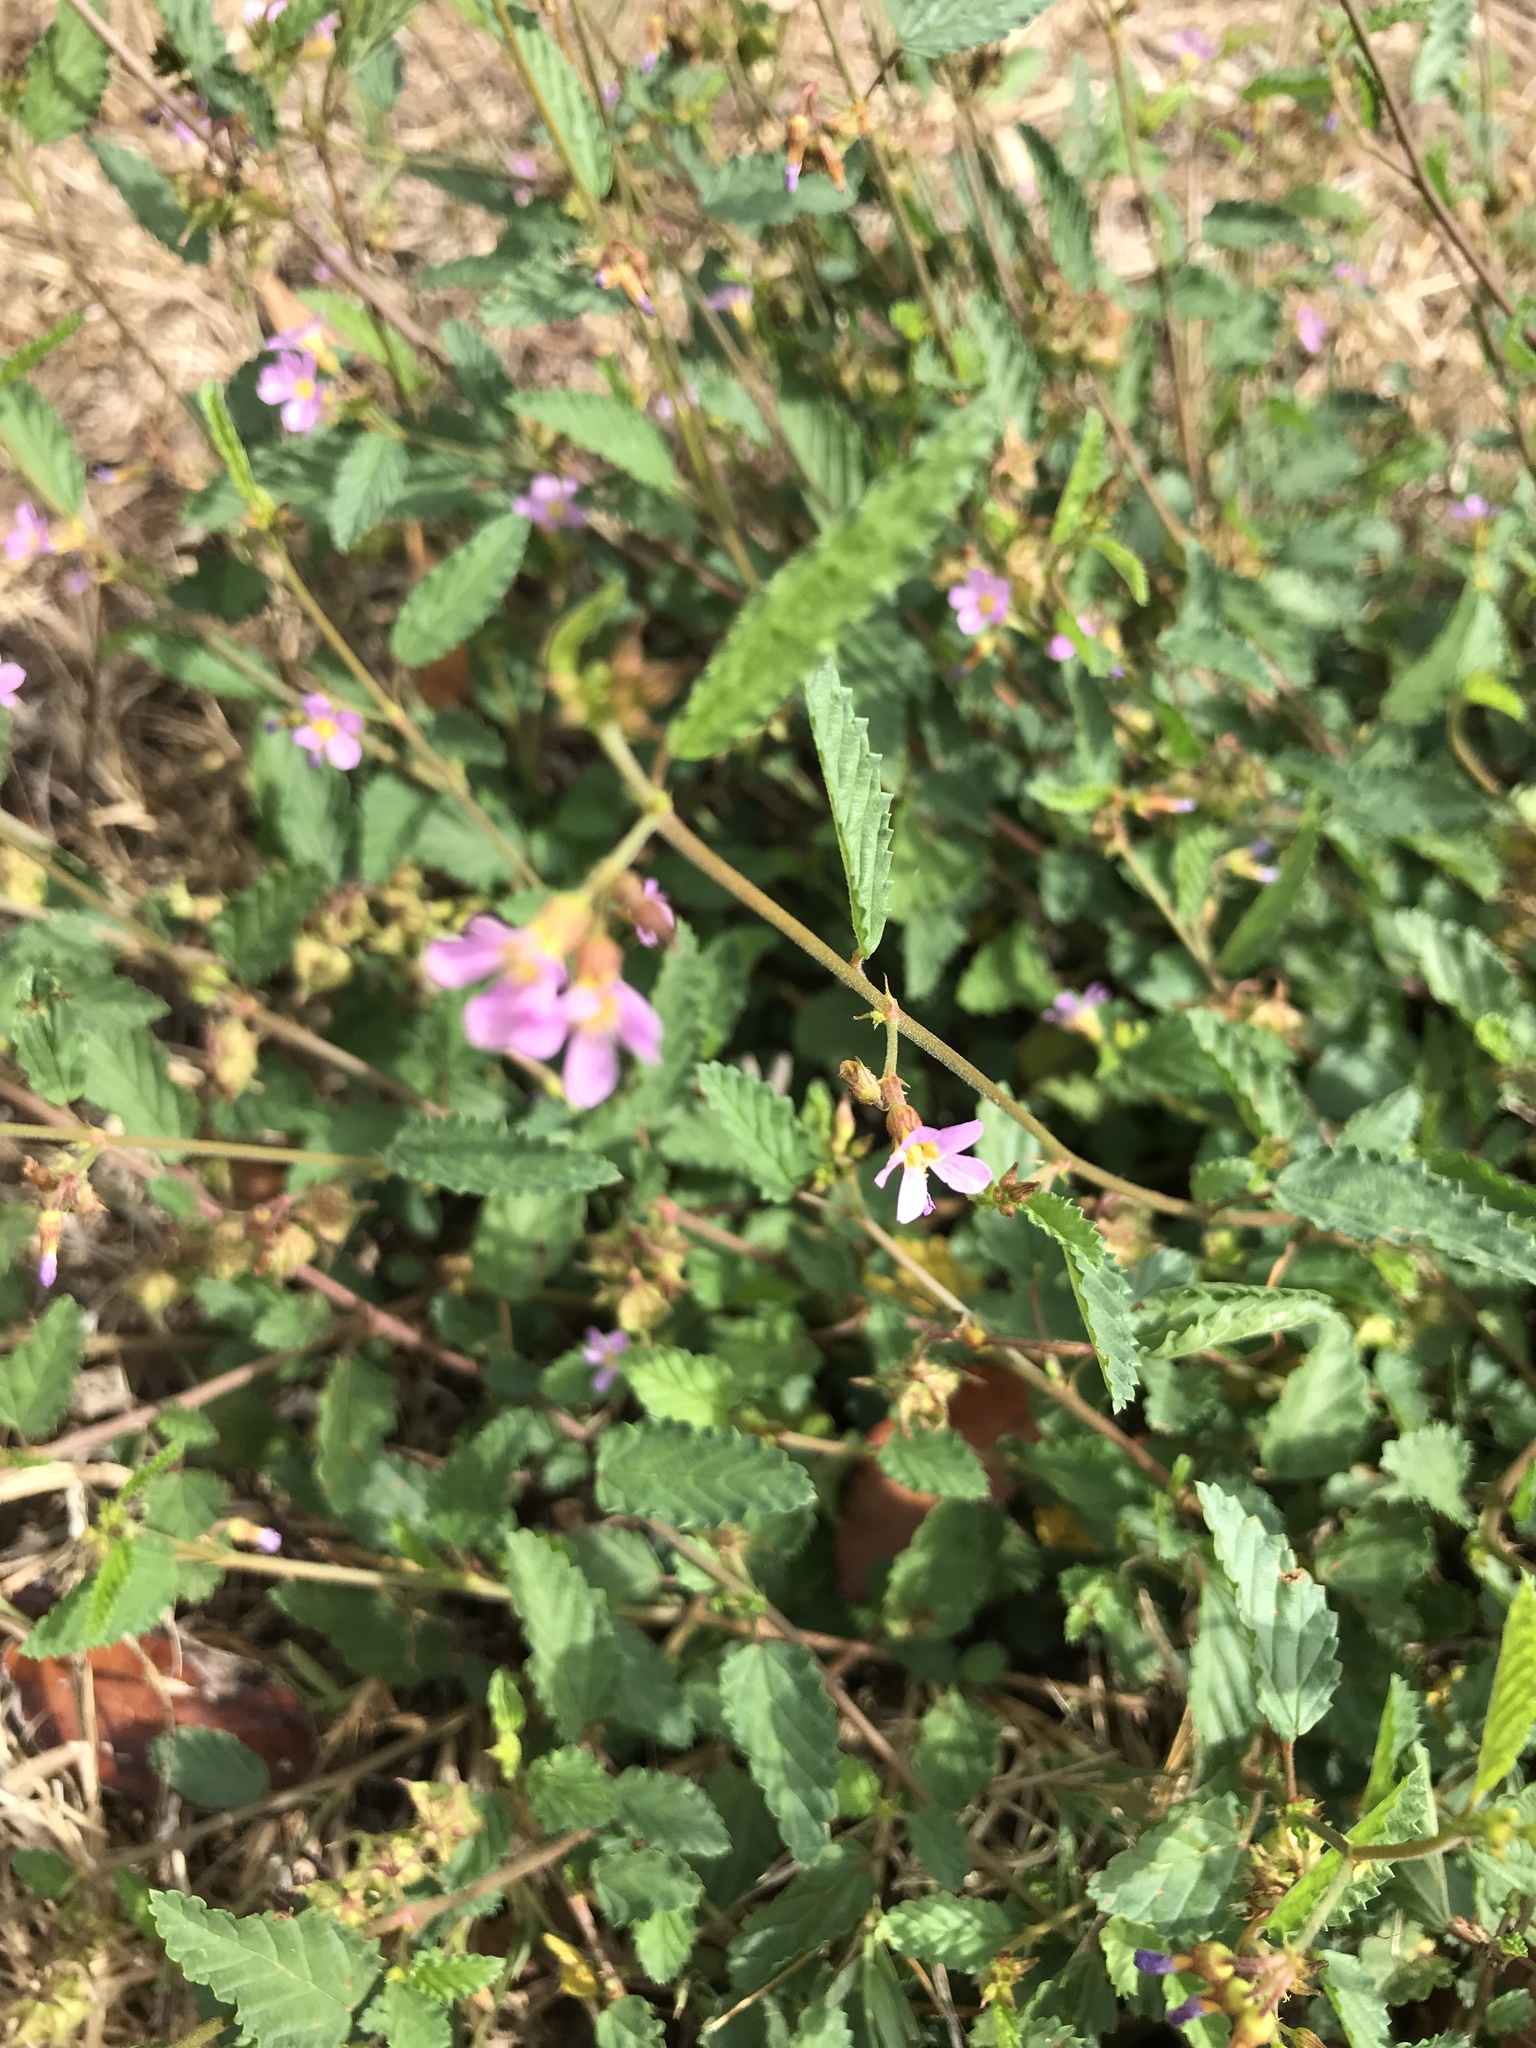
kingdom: Plantae
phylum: Tracheophyta
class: Magnoliopsida
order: Malvales
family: Malvaceae
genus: Melochia
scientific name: Melochia pyramidata
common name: Pyramidflower
